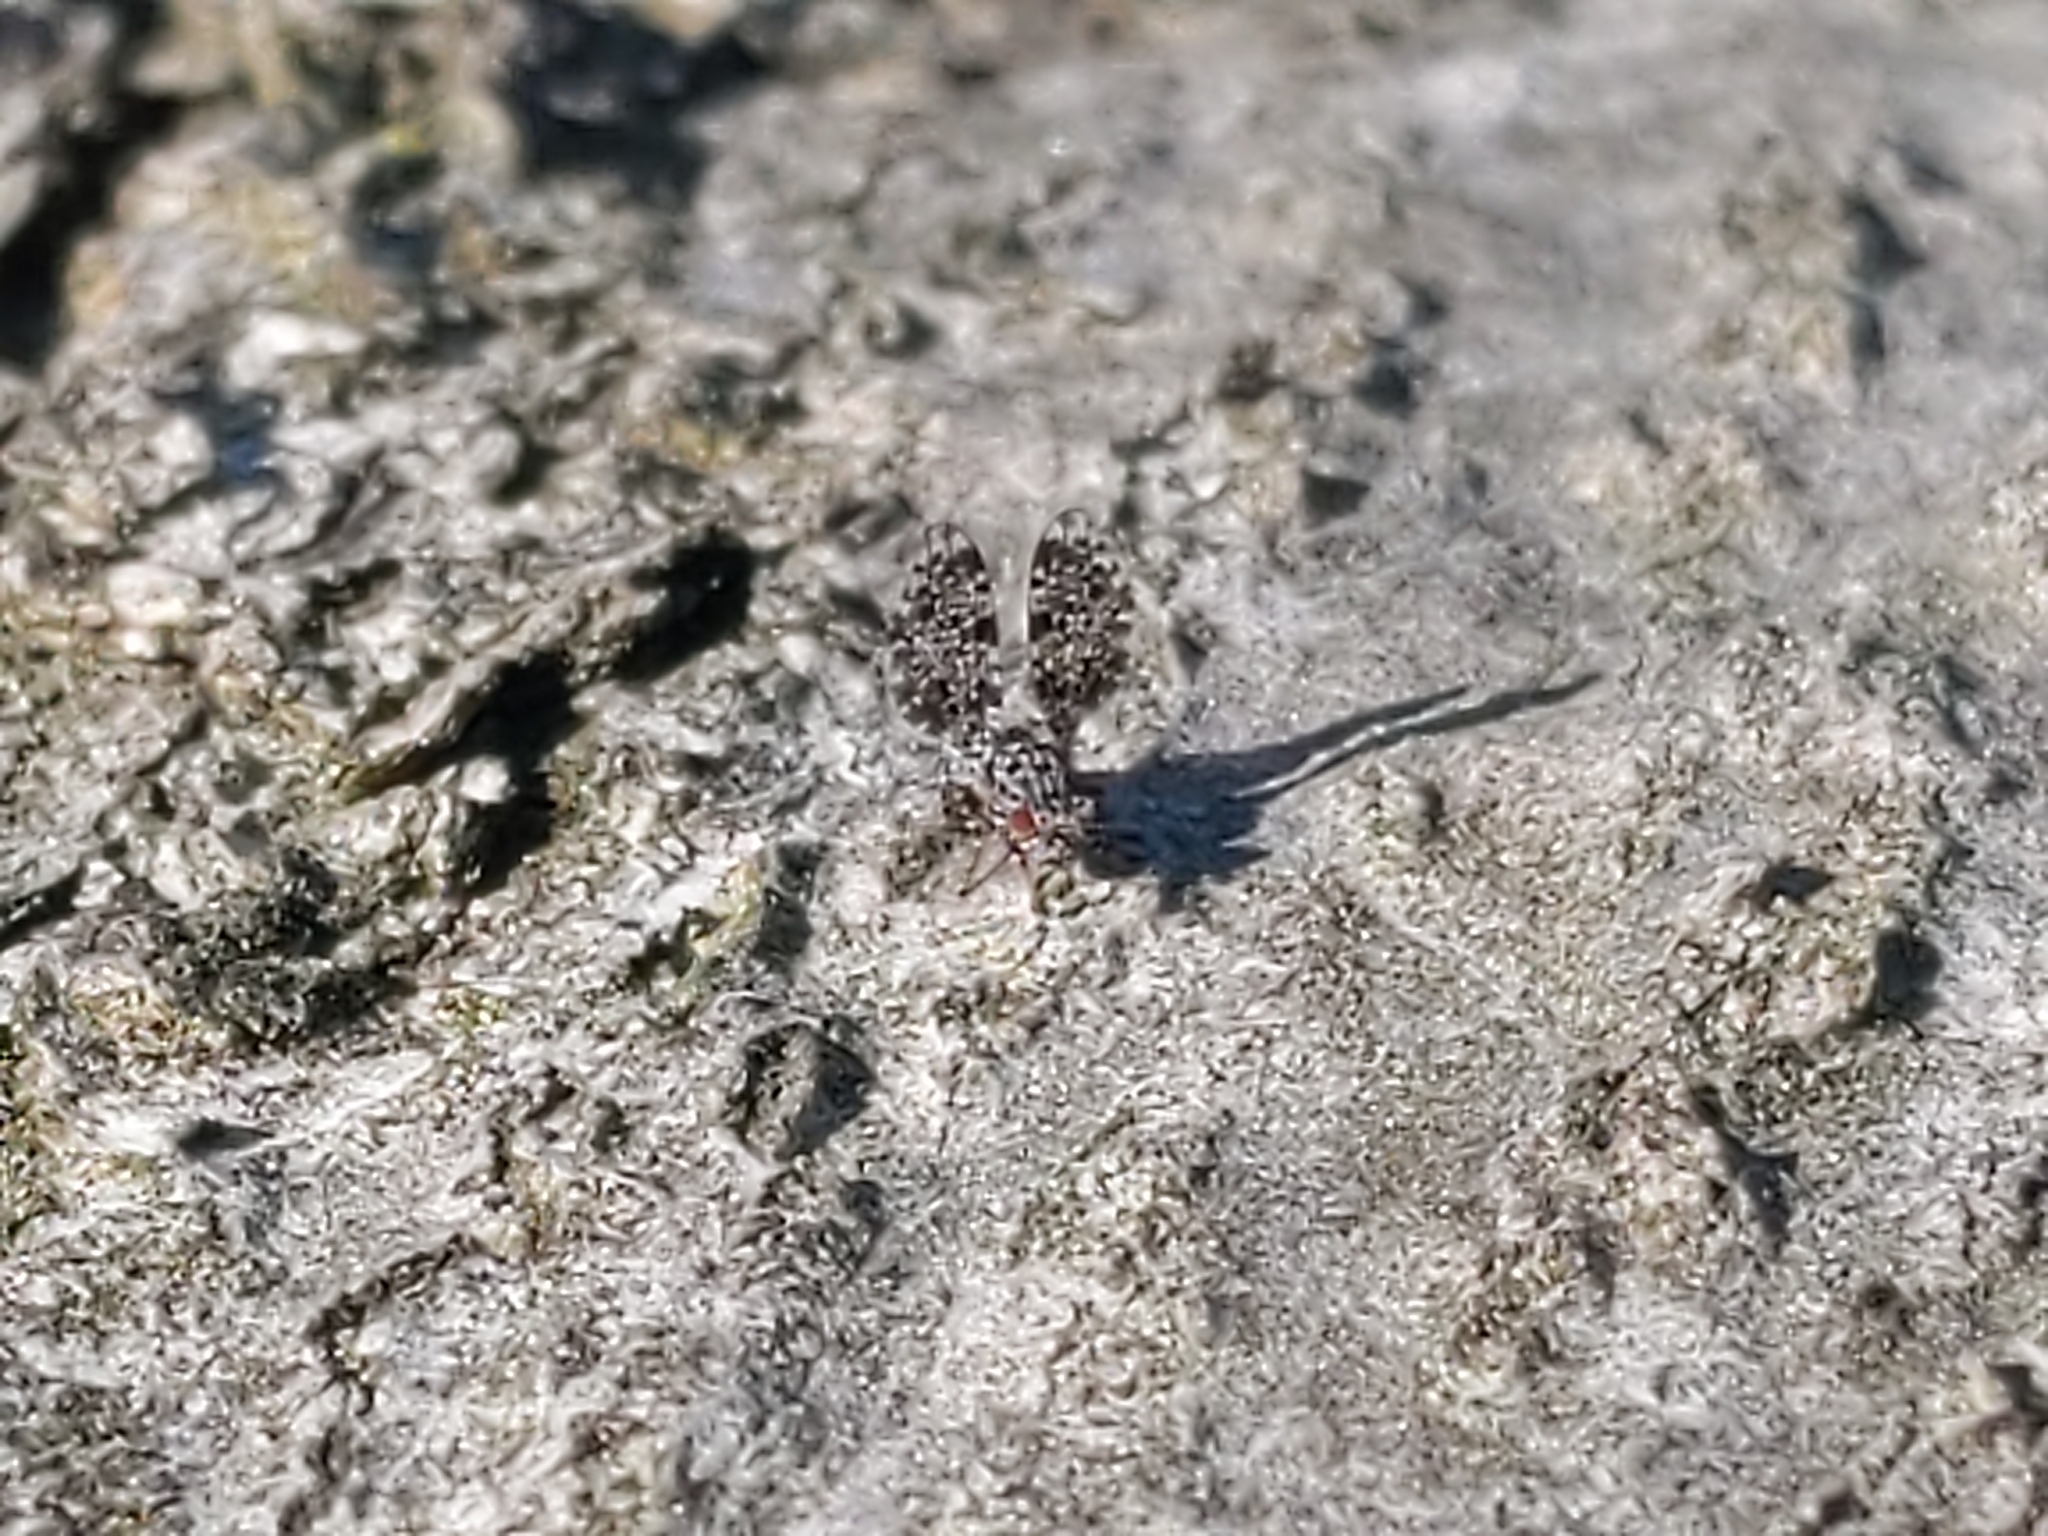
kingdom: Animalia
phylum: Arthropoda
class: Insecta
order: Diptera
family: Ulidiidae
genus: Callopistromyia
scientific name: Callopistromyia annulipes
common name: Peacock fly
